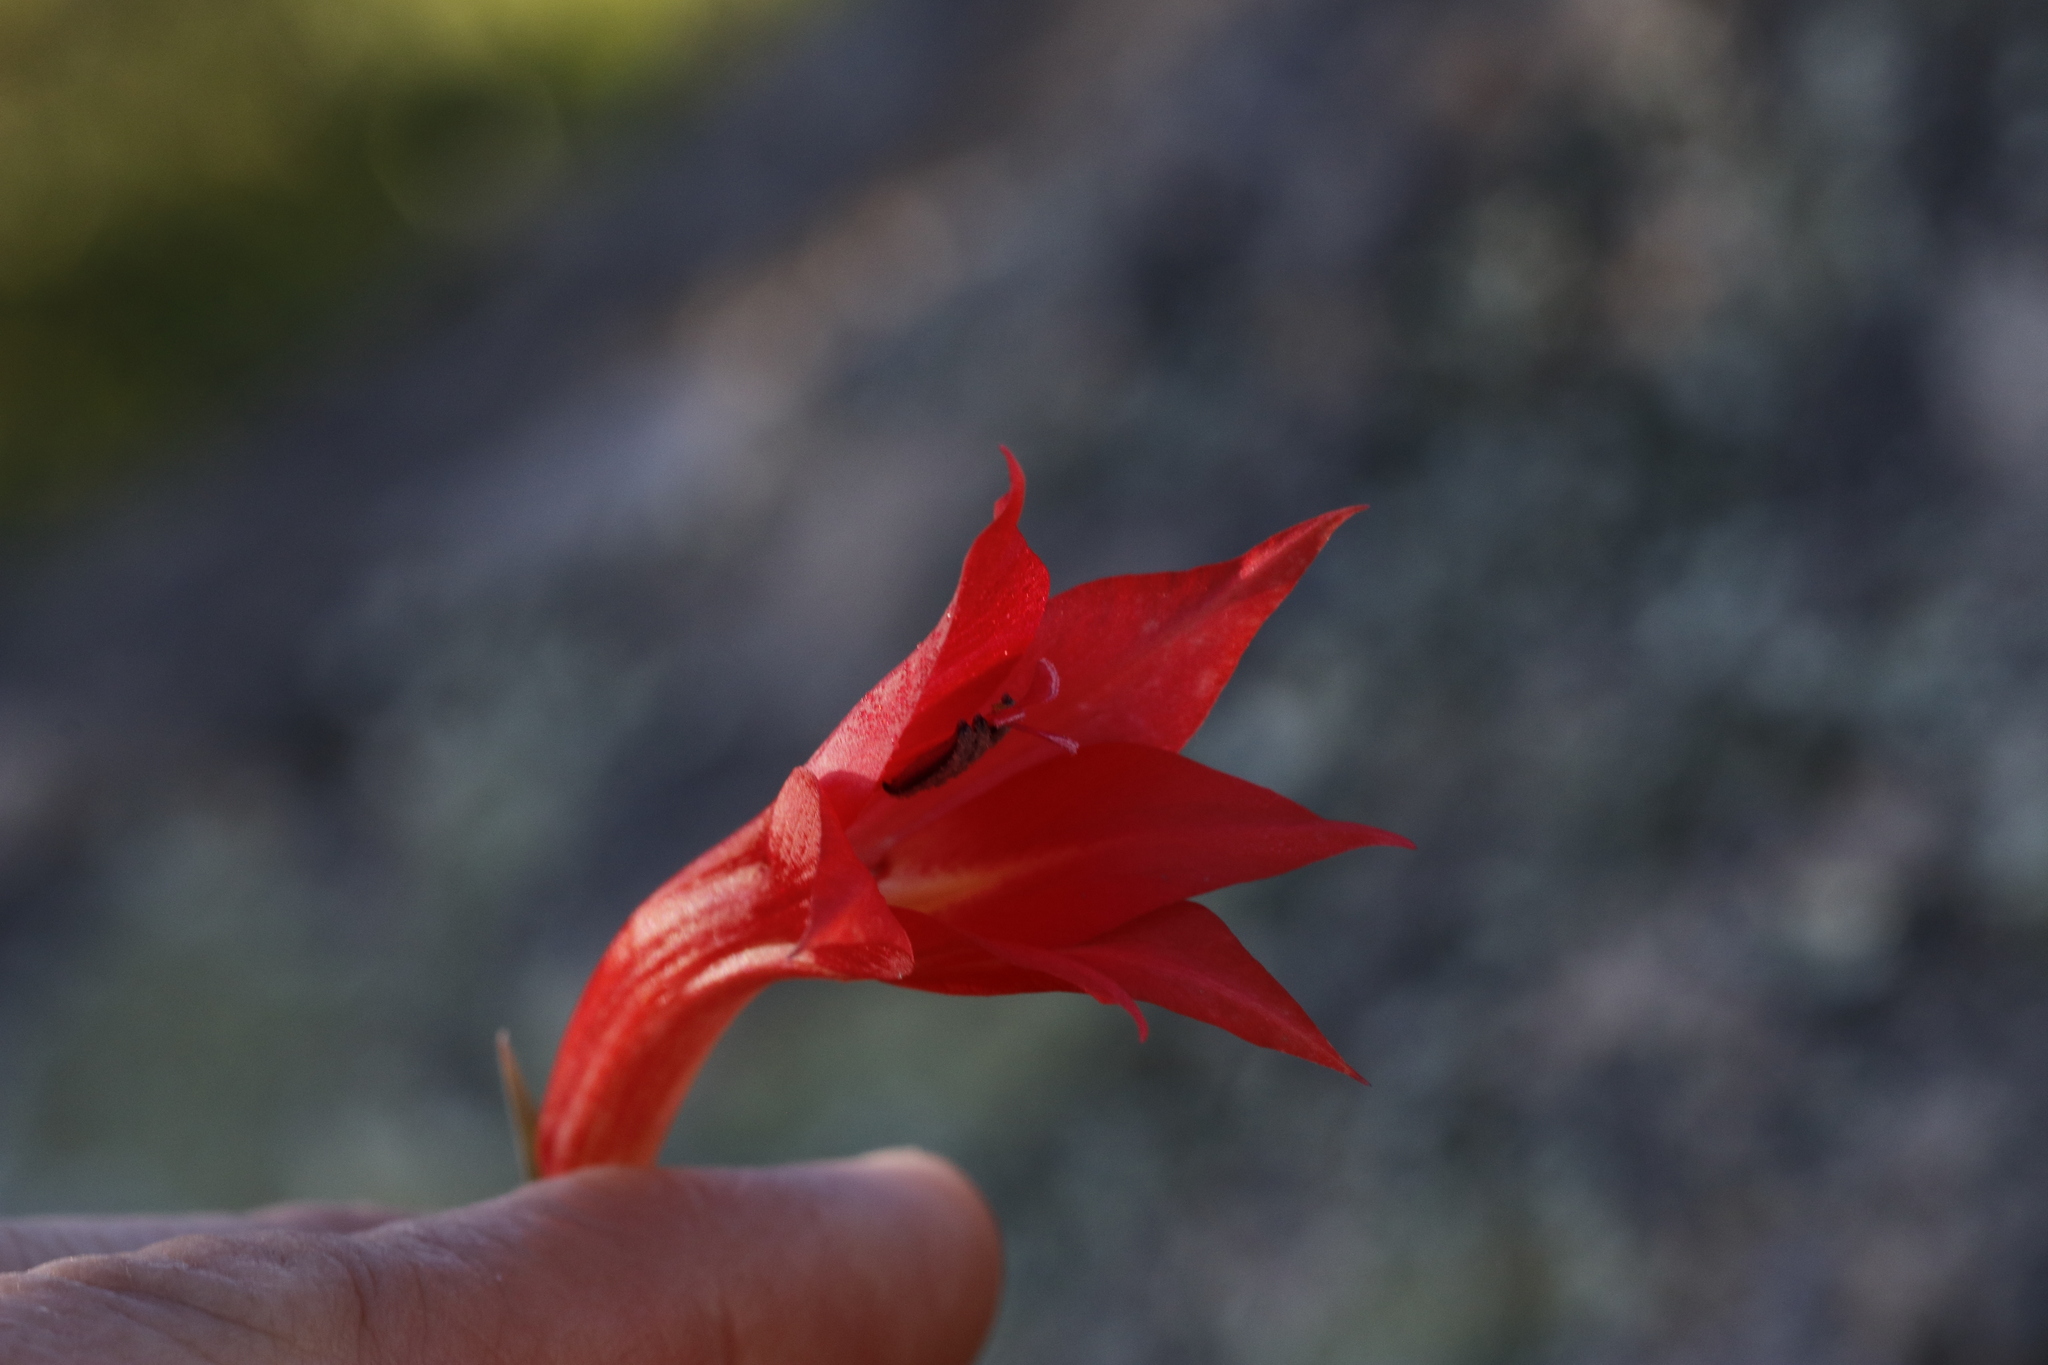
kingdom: Plantae
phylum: Tracheophyta
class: Liliopsida
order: Asparagales
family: Iridaceae
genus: Gladiolus
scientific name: Gladiolus priorii
